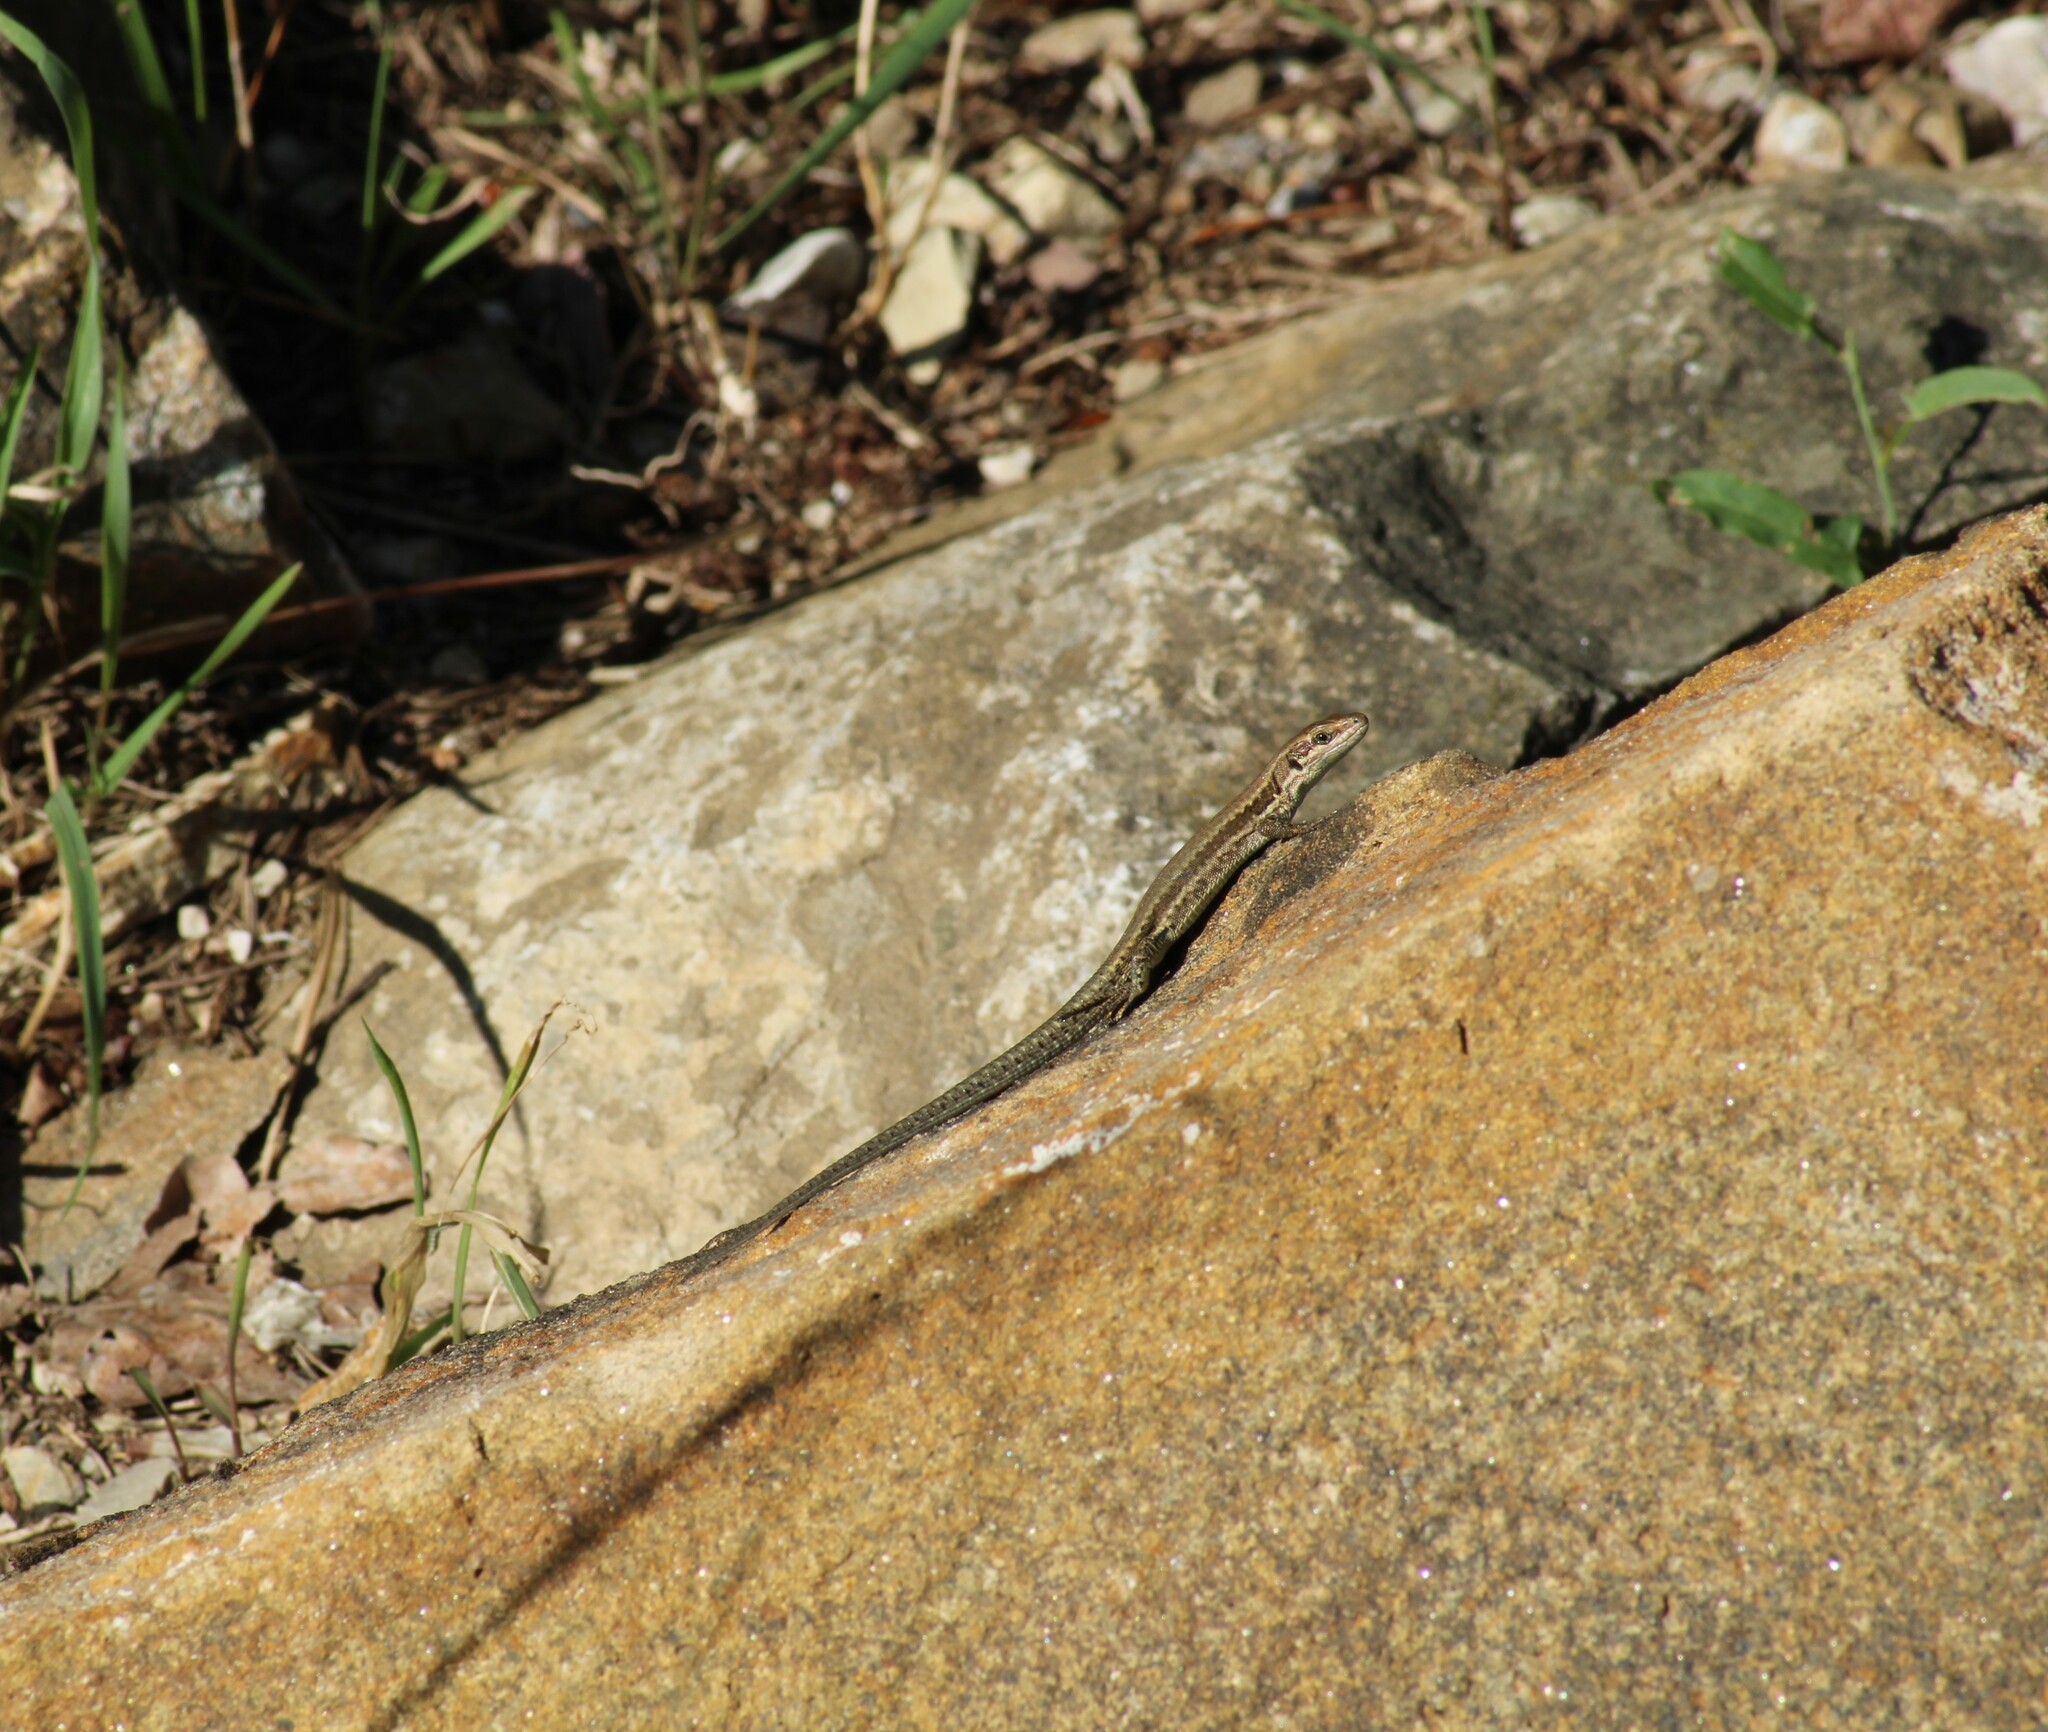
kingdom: Animalia
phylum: Chordata
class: Squamata
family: Lacertidae
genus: Podarcis
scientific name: Podarcis muralis
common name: Common wall lizard
